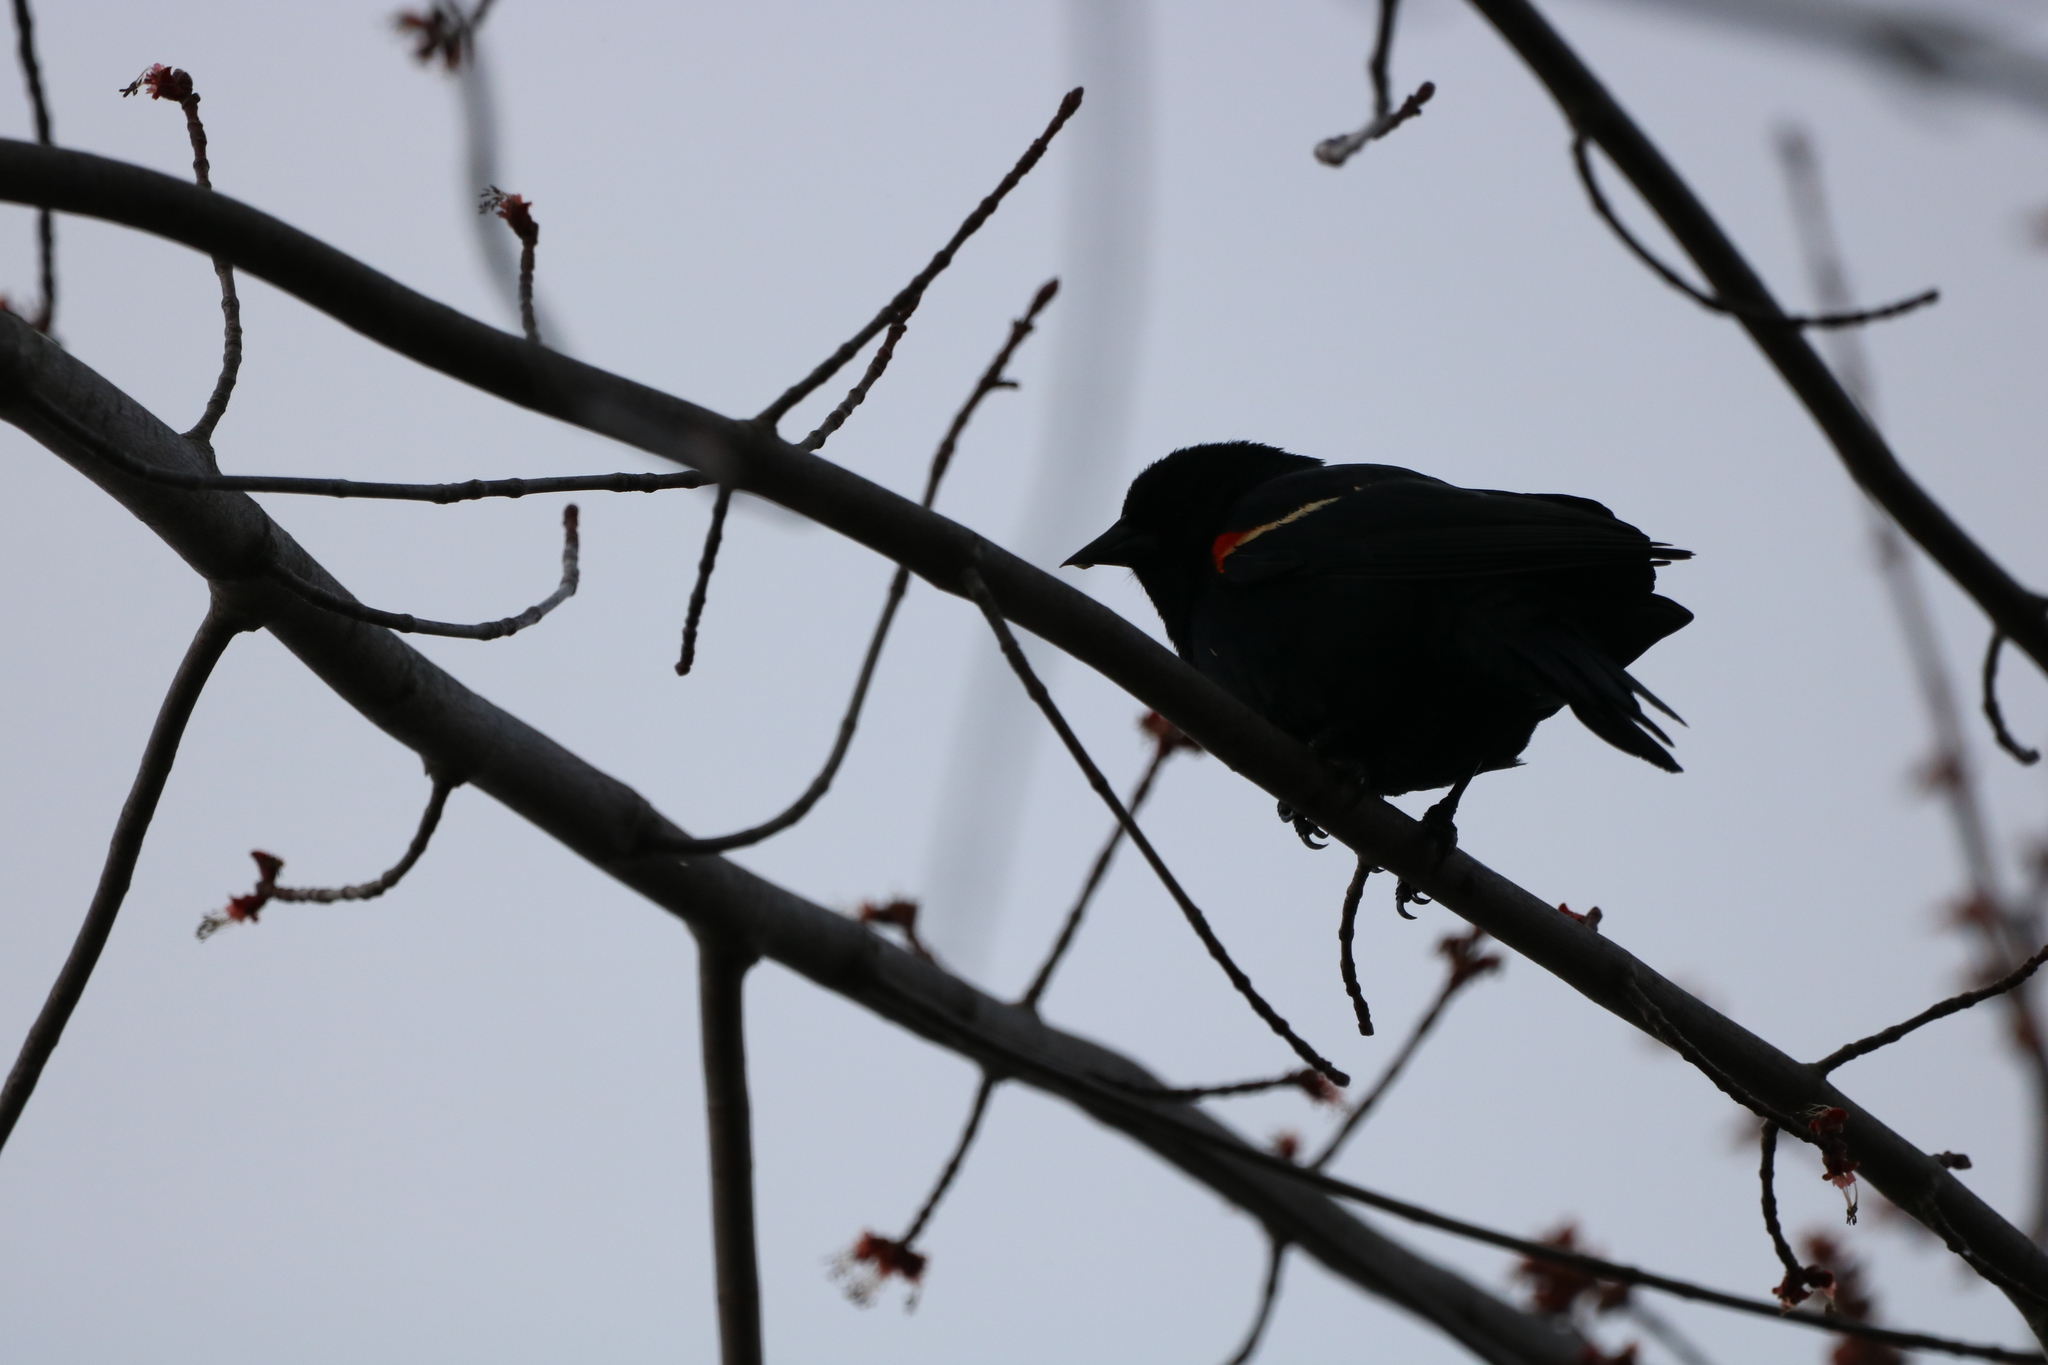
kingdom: Animalia
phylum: Chordata
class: Aves
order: Passeriformes
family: Icteridae
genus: Agelaius
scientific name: Agelaius phoeniceus
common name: Red-winged blackbird
